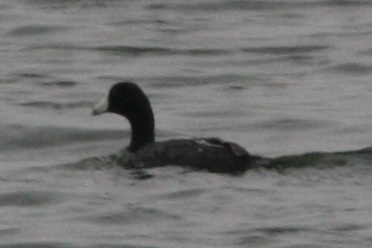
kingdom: Animalia
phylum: Chordata
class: Aves
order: Gruiformes
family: Rallidae
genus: Fulica
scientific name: Fulica americana
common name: American coot
